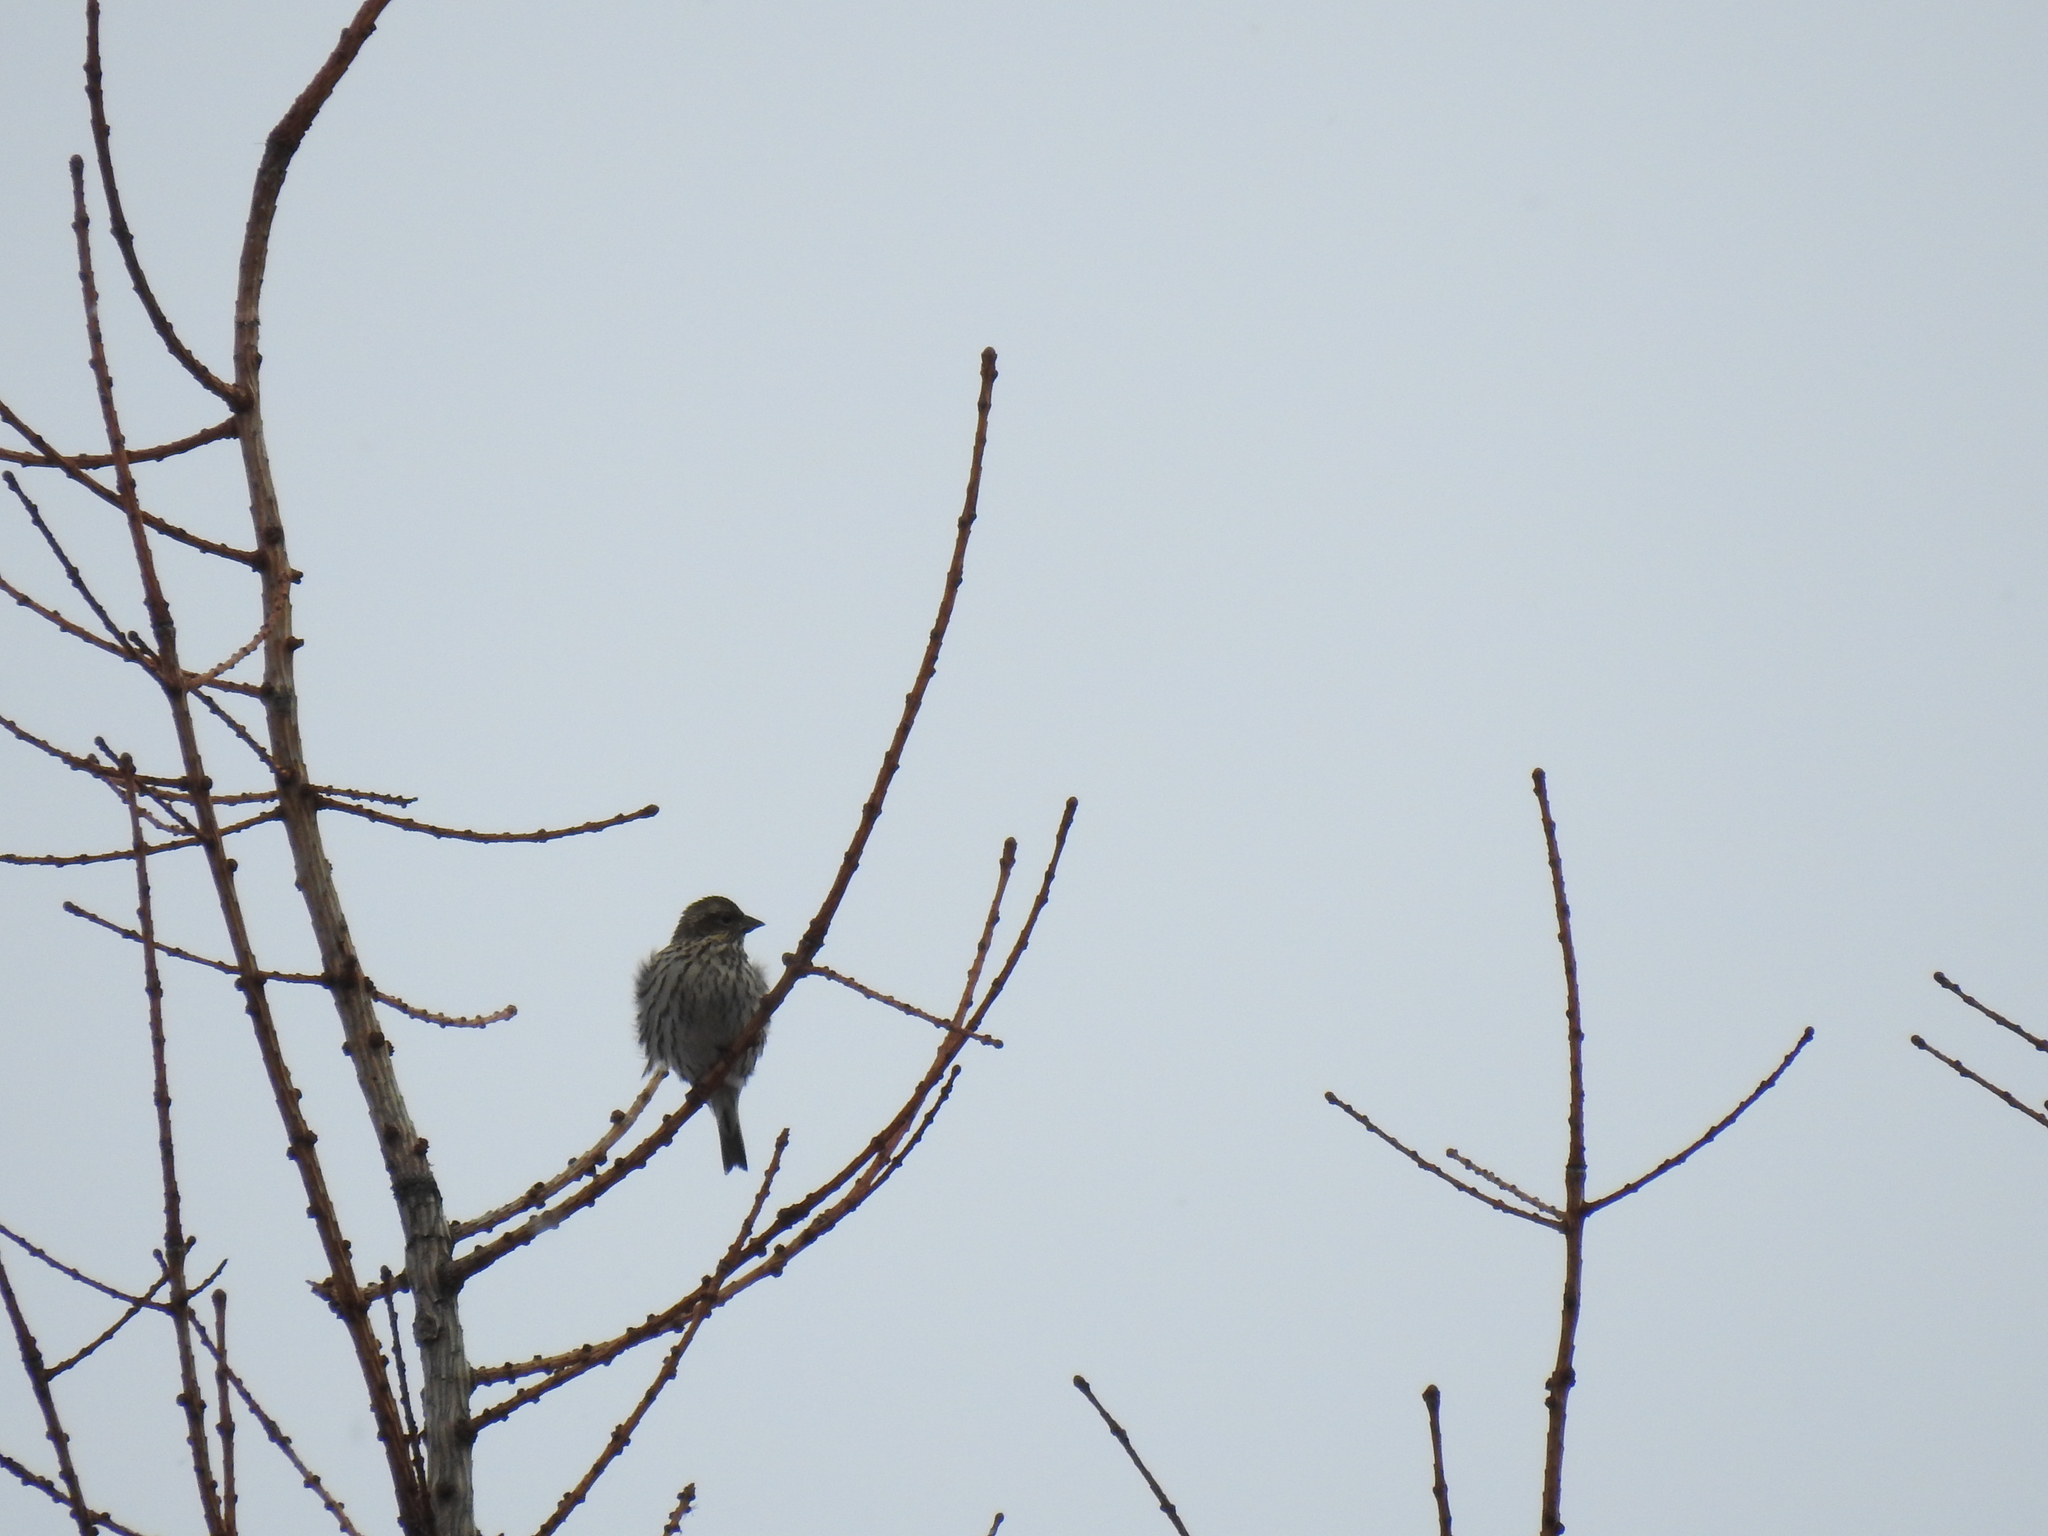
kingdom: Animalia
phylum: Chordata
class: Aves
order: Passeriformes
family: Fringillidae
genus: Haemorhous
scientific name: Haemorhous cassinii
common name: Cassin's finch
